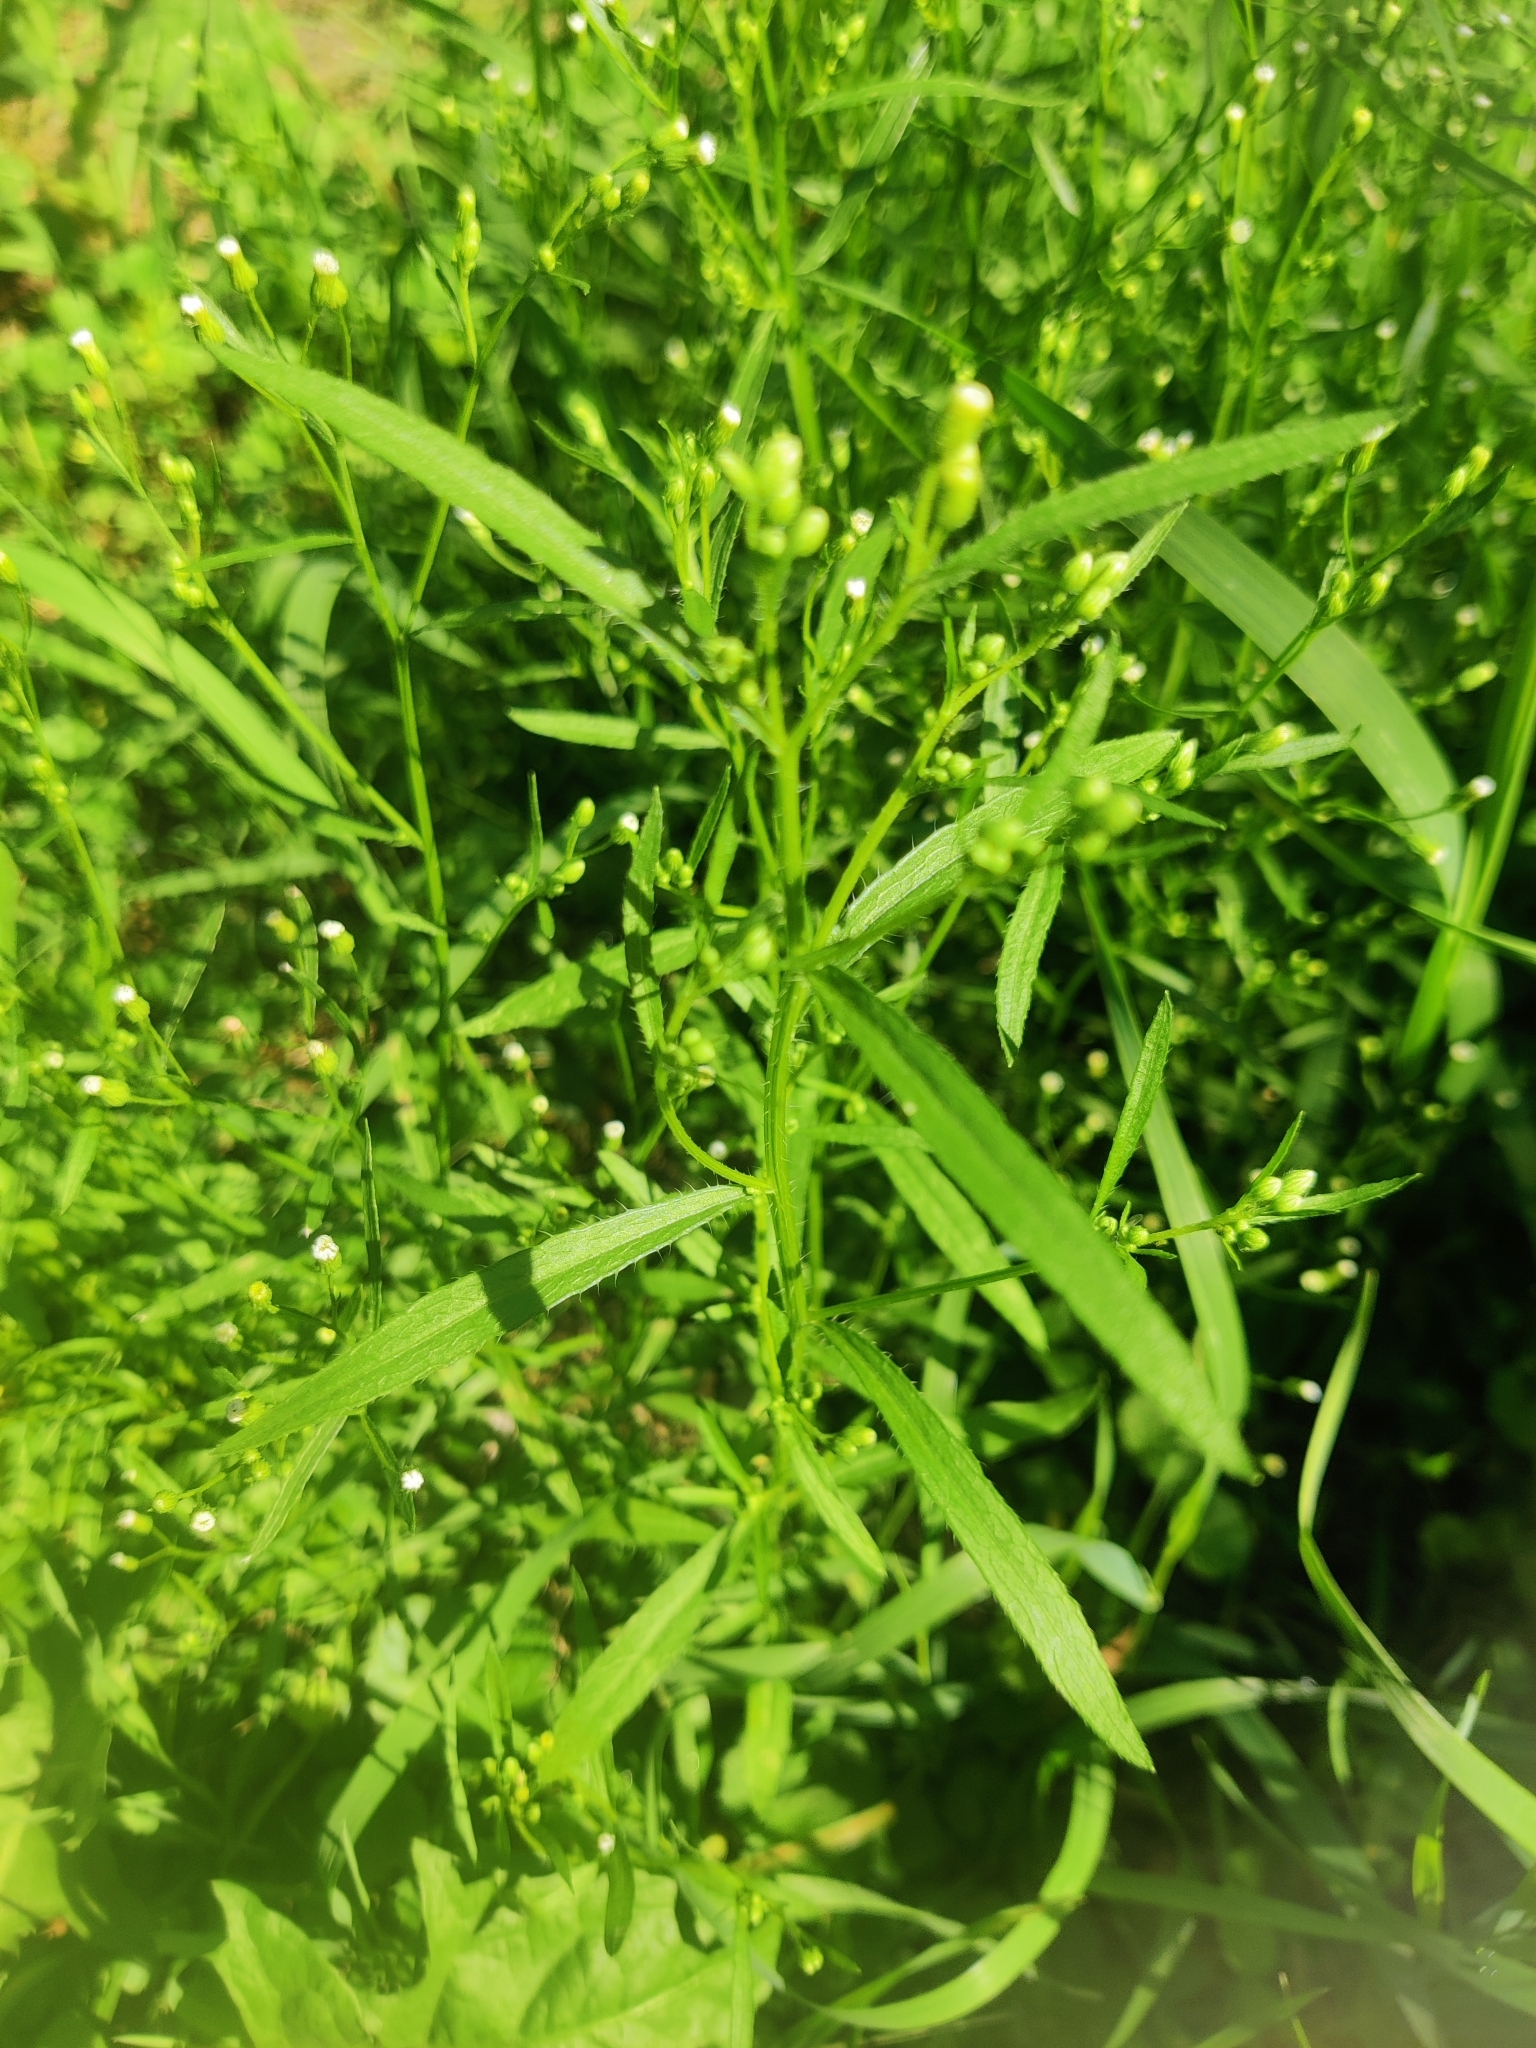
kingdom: Plantae
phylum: Tracheophyta
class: Magnoliopsida
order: Asterales
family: Asteraceae
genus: Erigeron
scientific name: Erigeron canadensis
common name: Canadian fleabane
